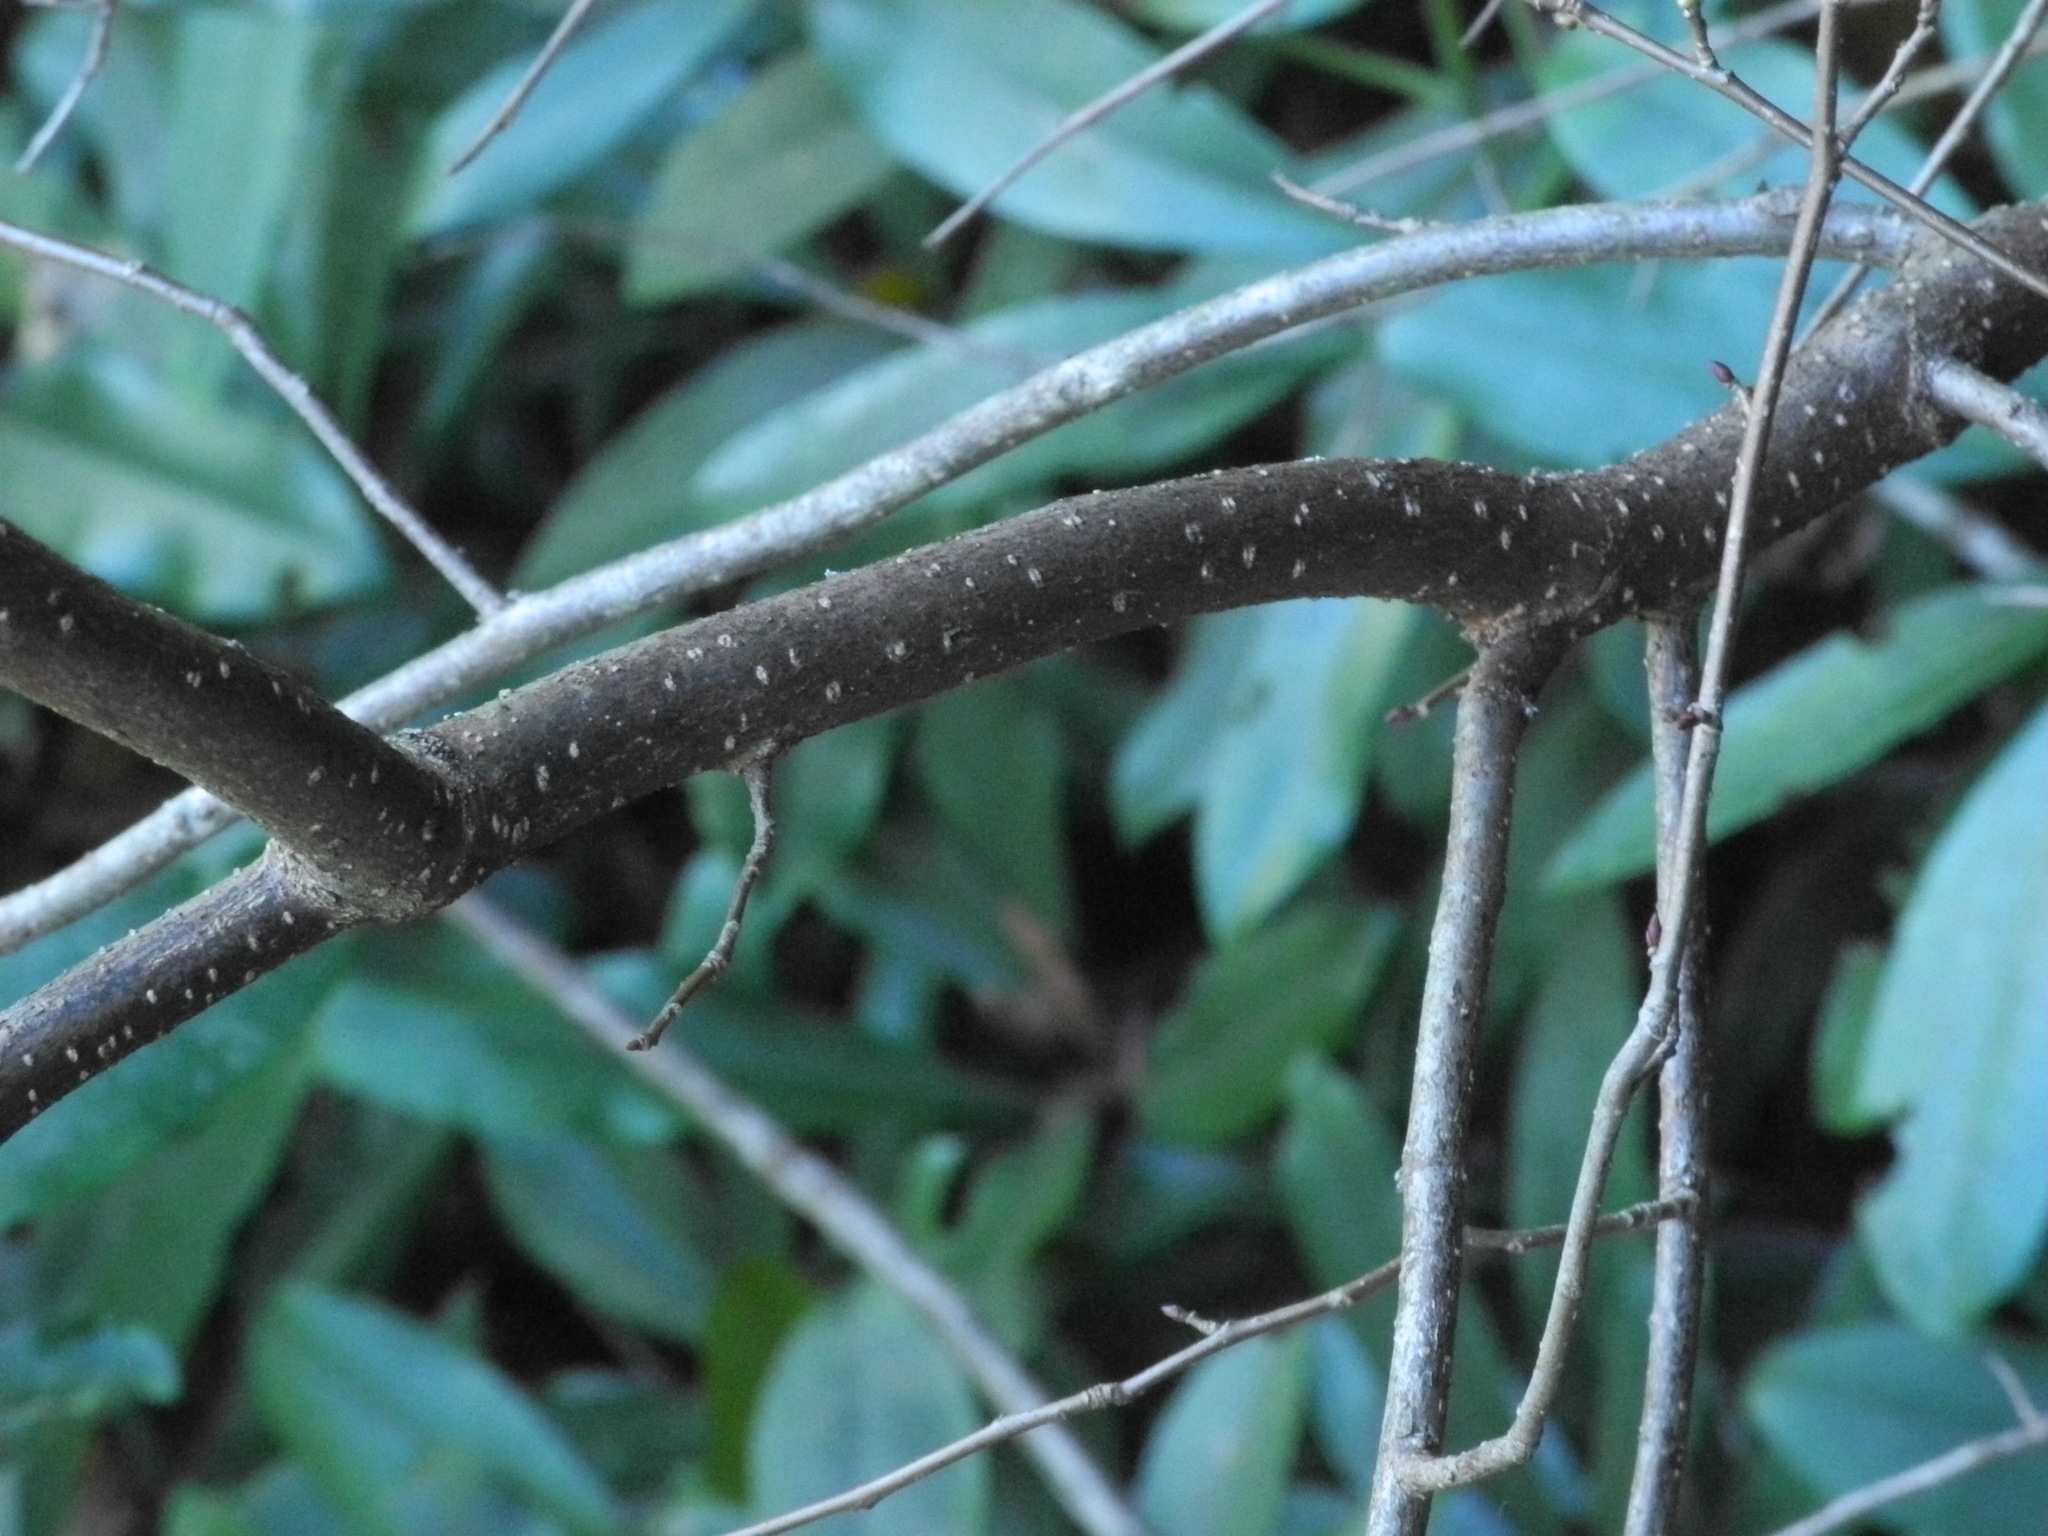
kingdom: Plantae
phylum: Tracheophyta
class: Magnoliopsida
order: Laurales
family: Lauraceae
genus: Lindera
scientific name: Lindera benzoin
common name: Spicebush
